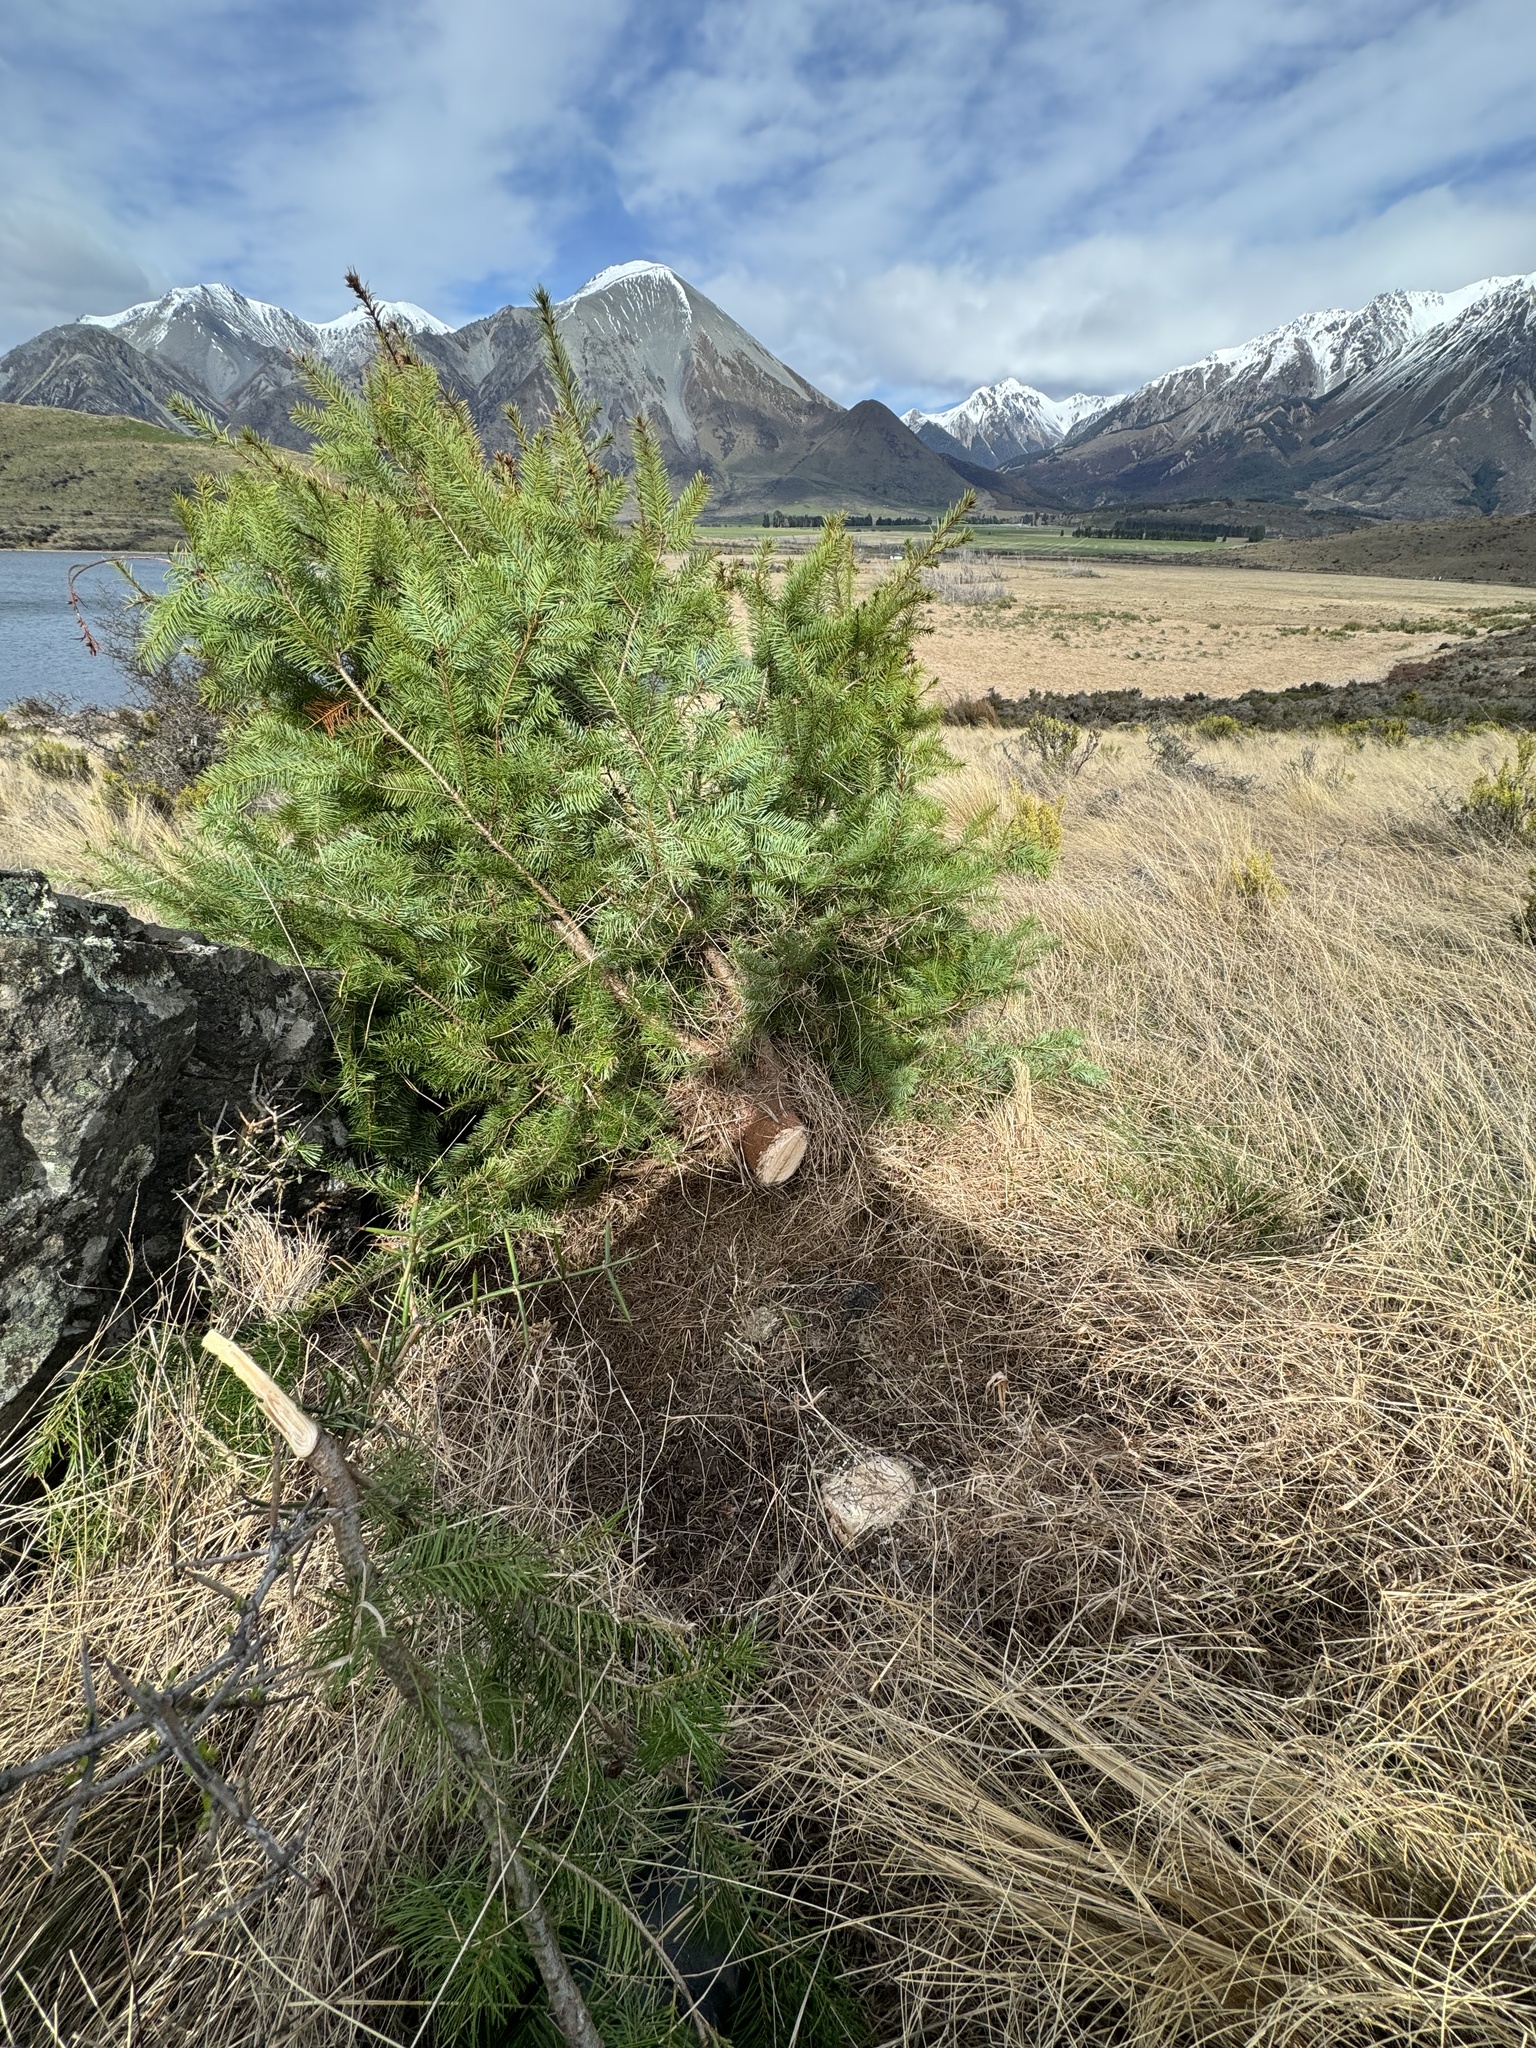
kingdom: Plantae
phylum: Tracheophyta
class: Pinopsida
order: Pinales
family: Pinaceae
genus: Pseudotsuga
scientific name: Pseudotsuga menziesii
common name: Douglas fir
